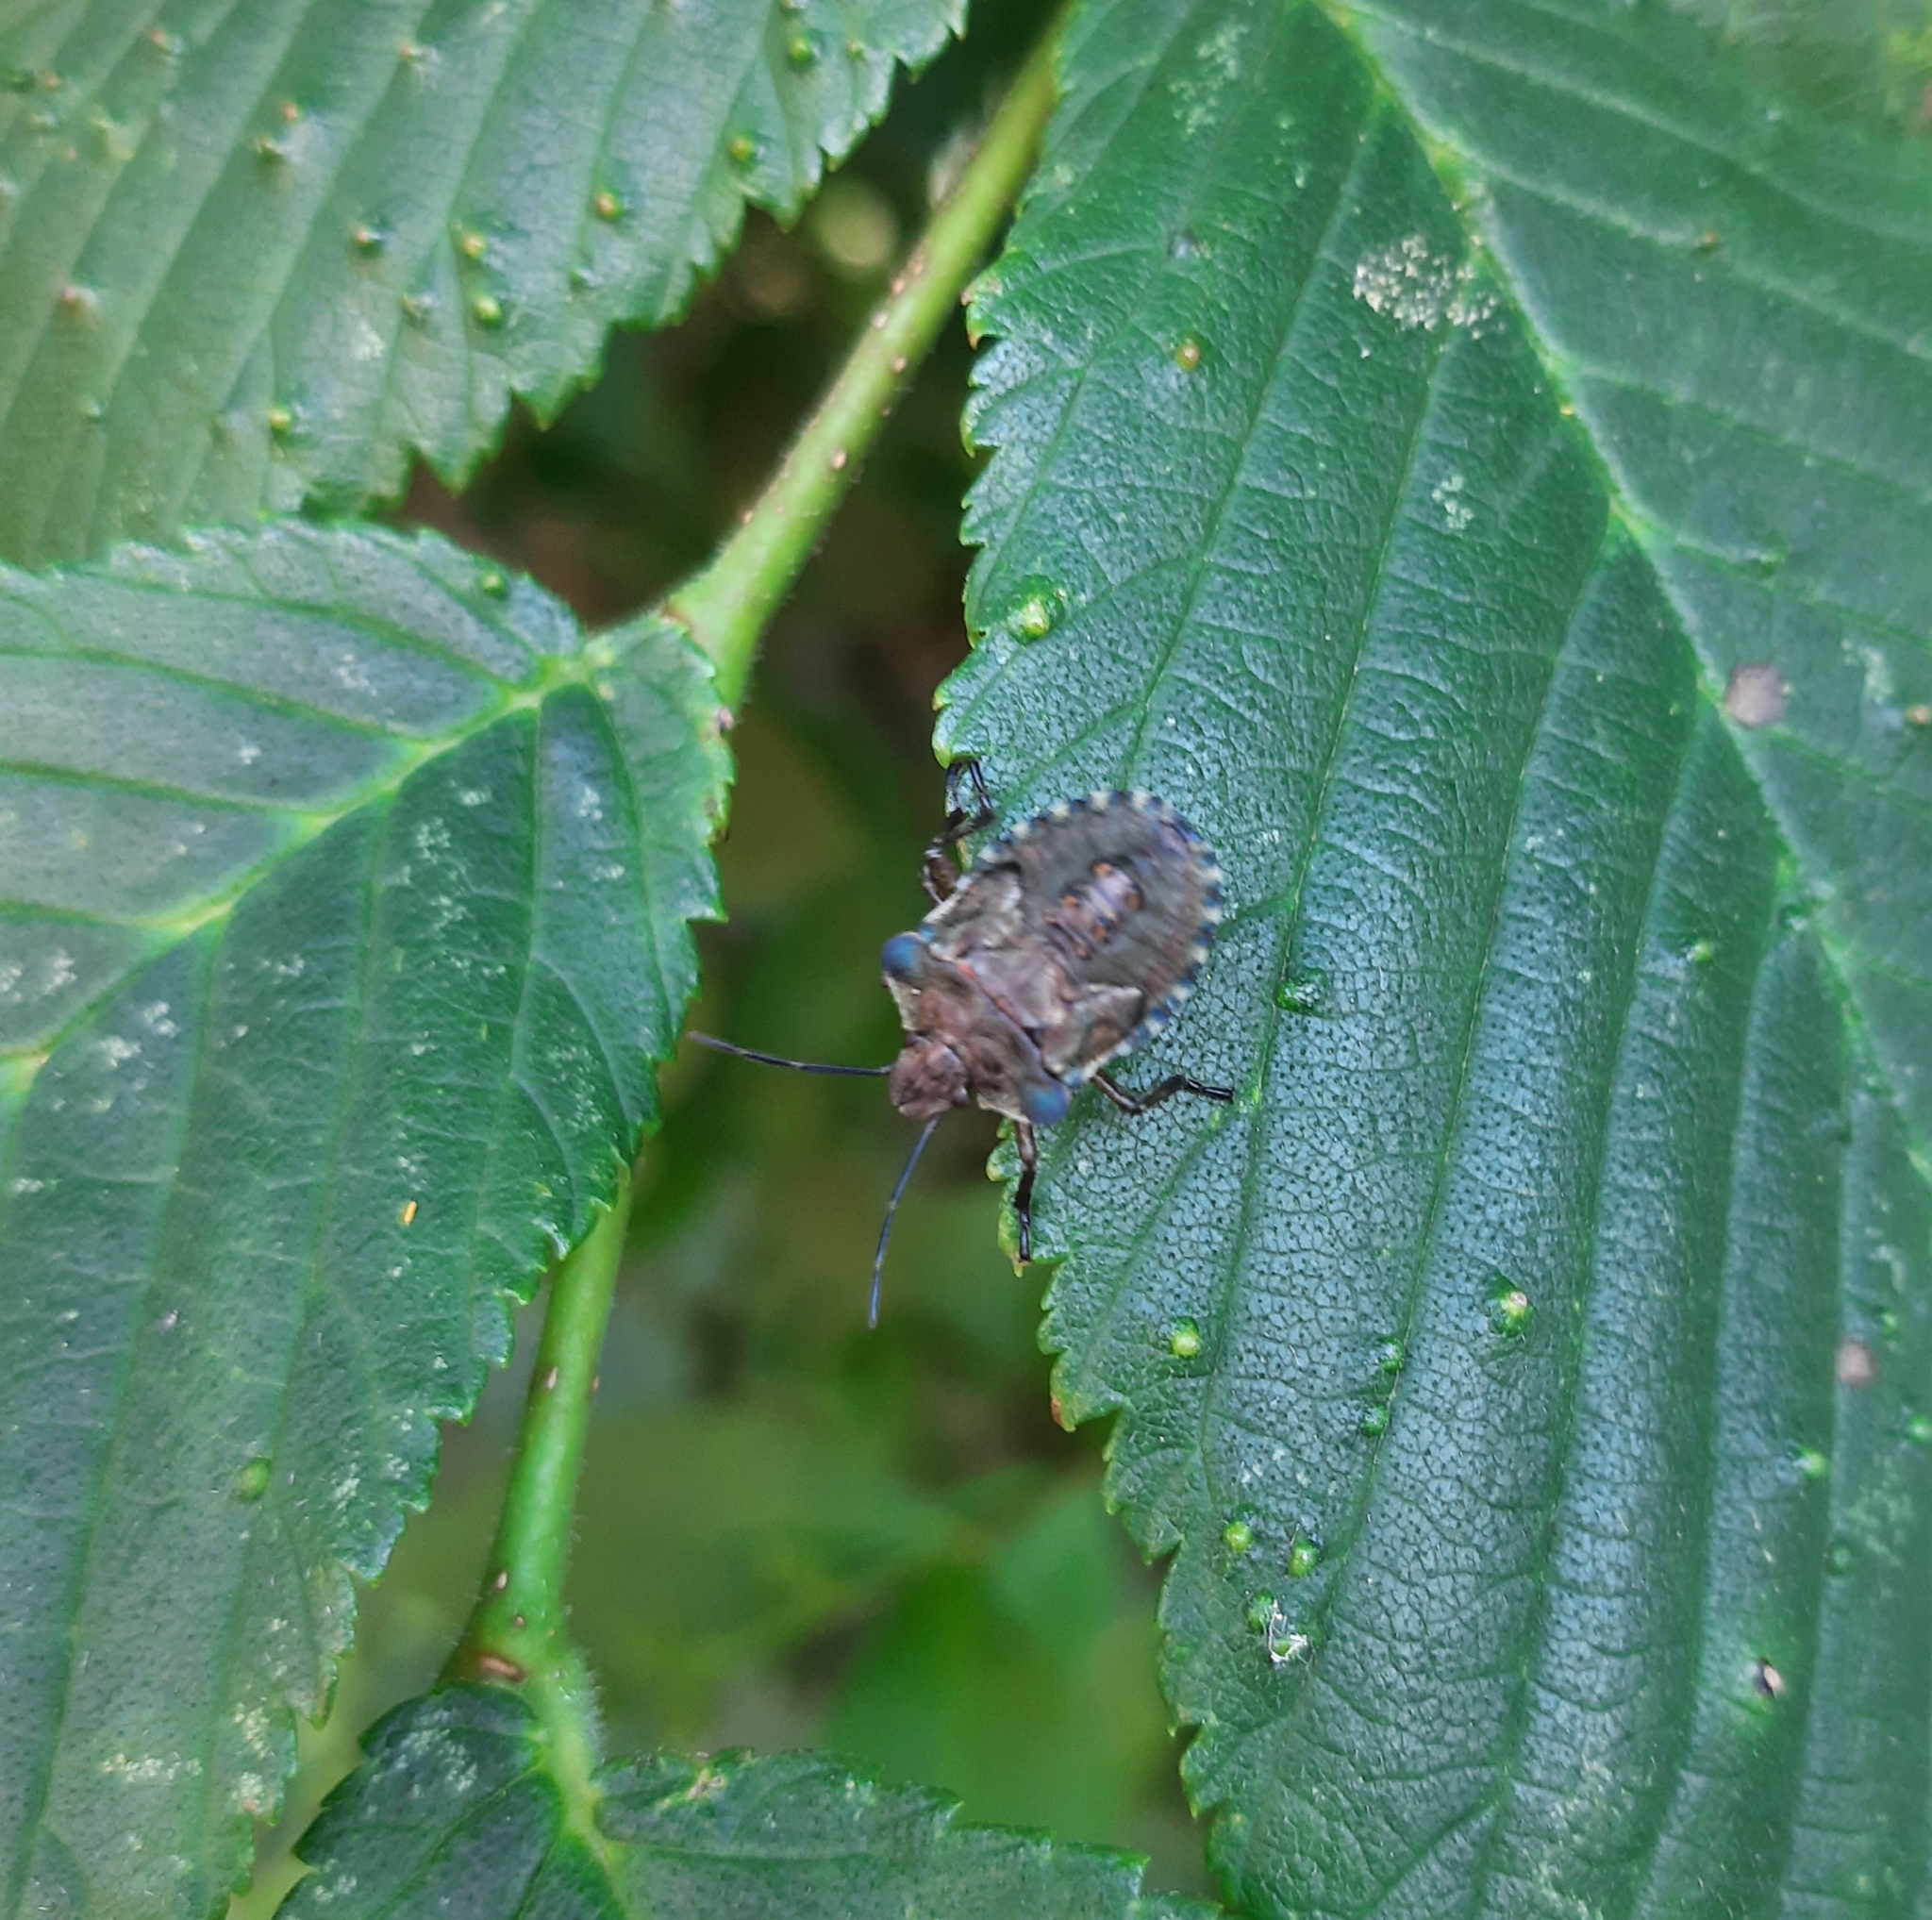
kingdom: Animalia
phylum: Arthropoda
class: Insecta
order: Hemiptera
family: Pentatomidae
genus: Pentatoma
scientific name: Pentatoma rufipes
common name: Forest bug
